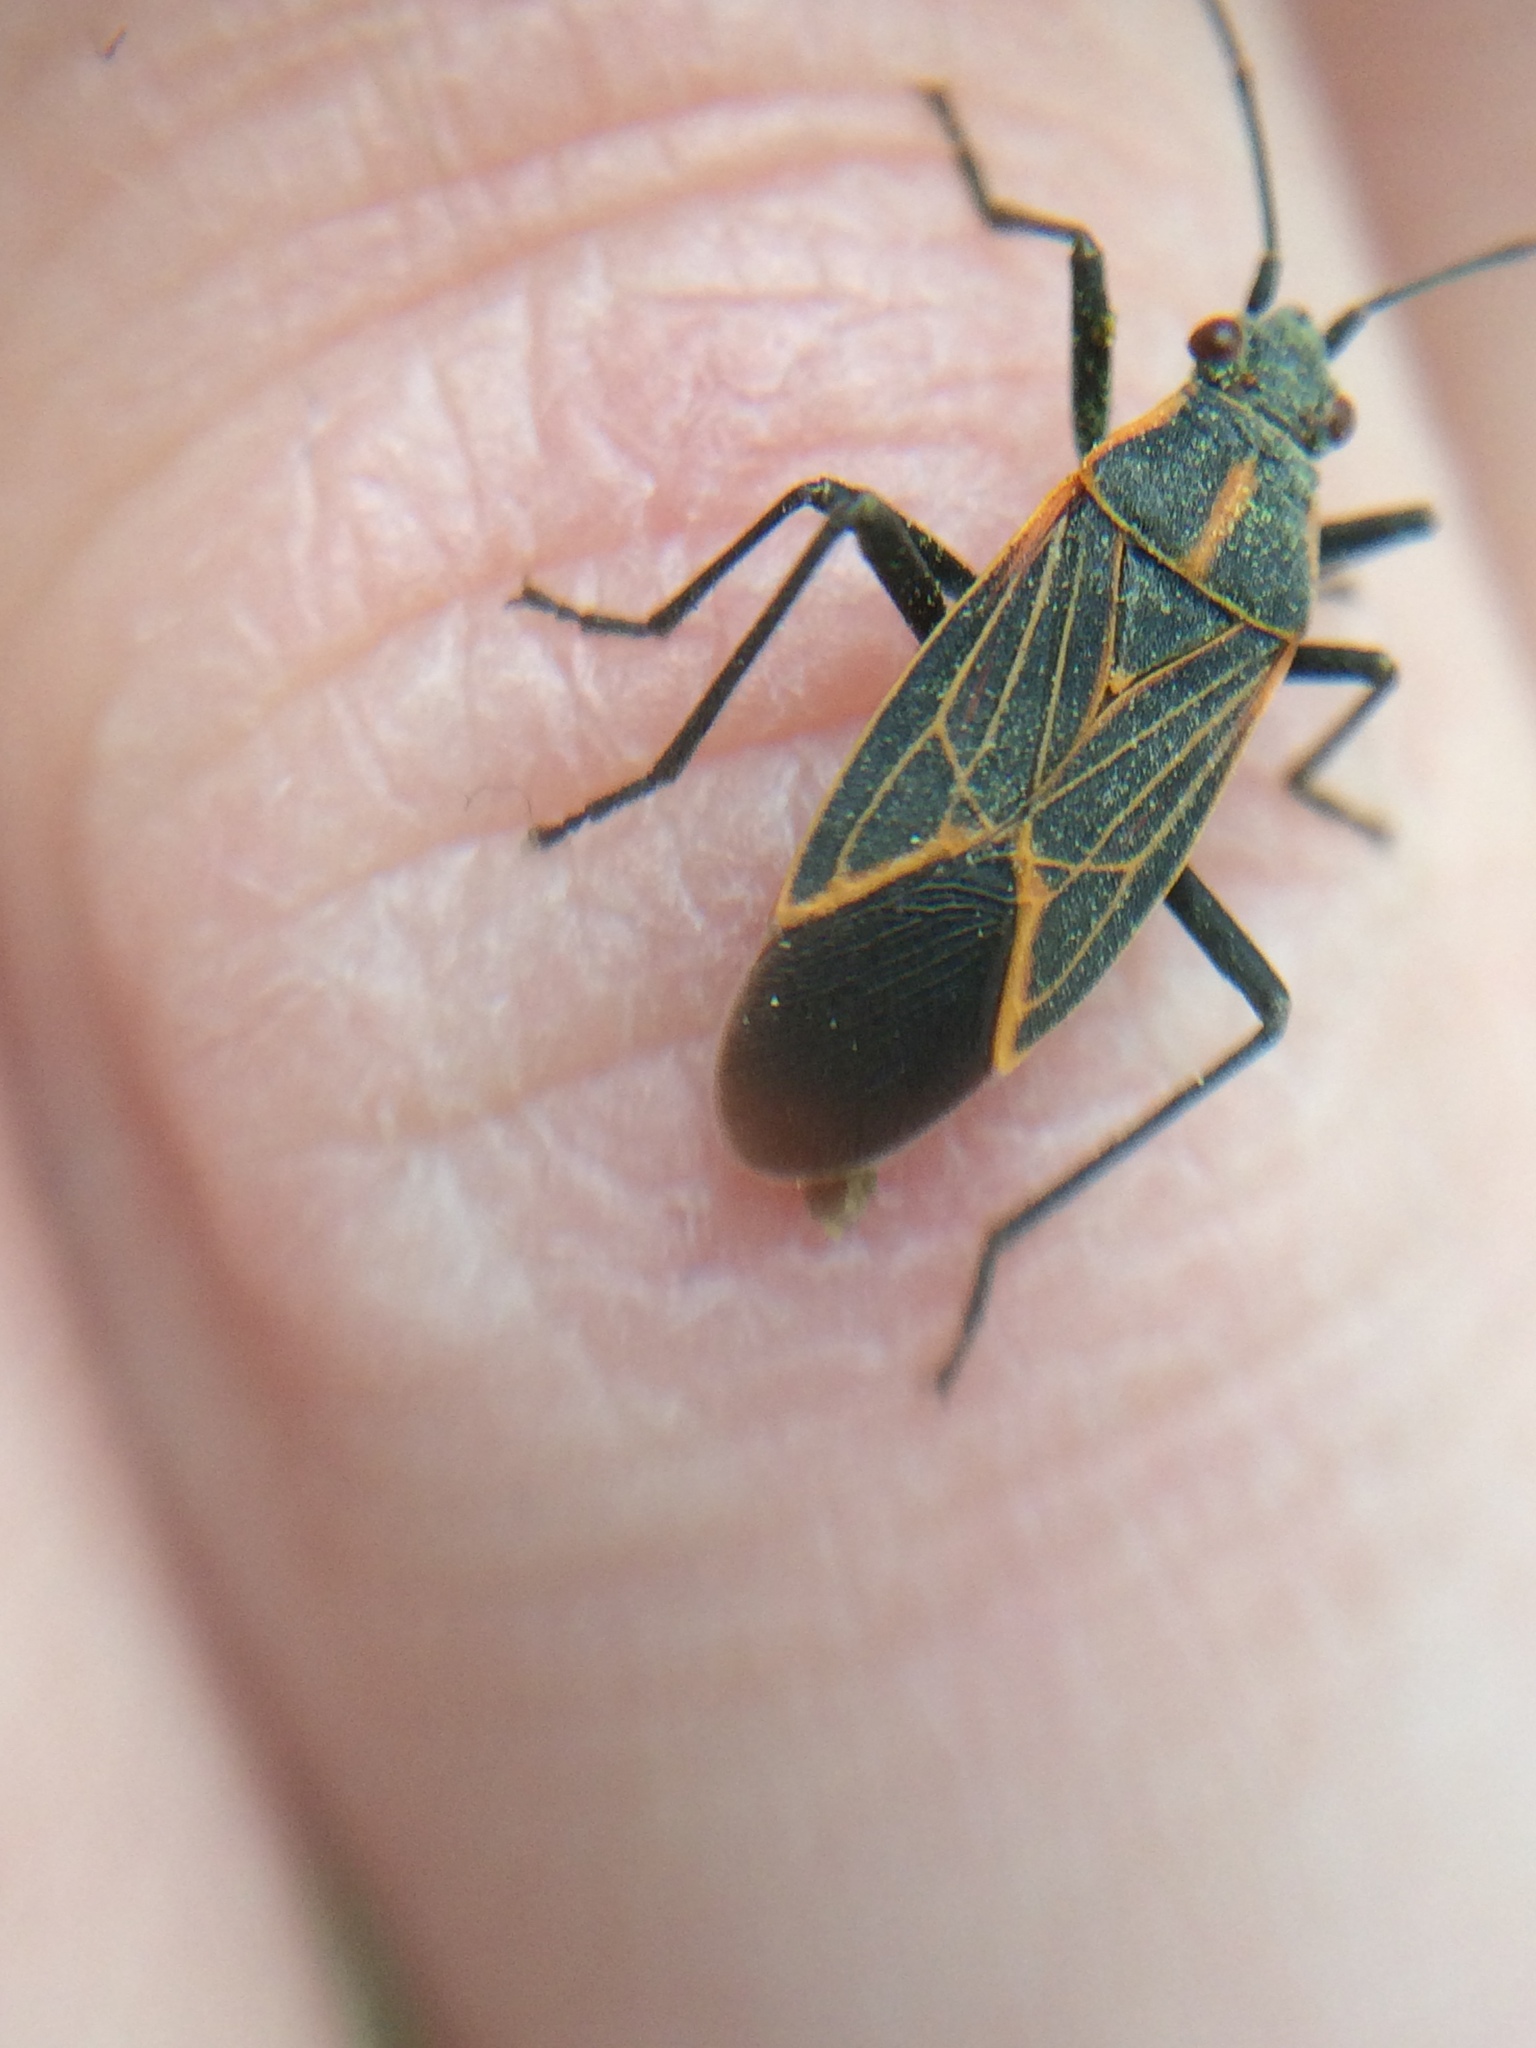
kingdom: Animalia
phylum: Arthropoda
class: Insecta
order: Hemiptera
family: Rhopalidae
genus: Boisea
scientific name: Boisea rubrolineata
